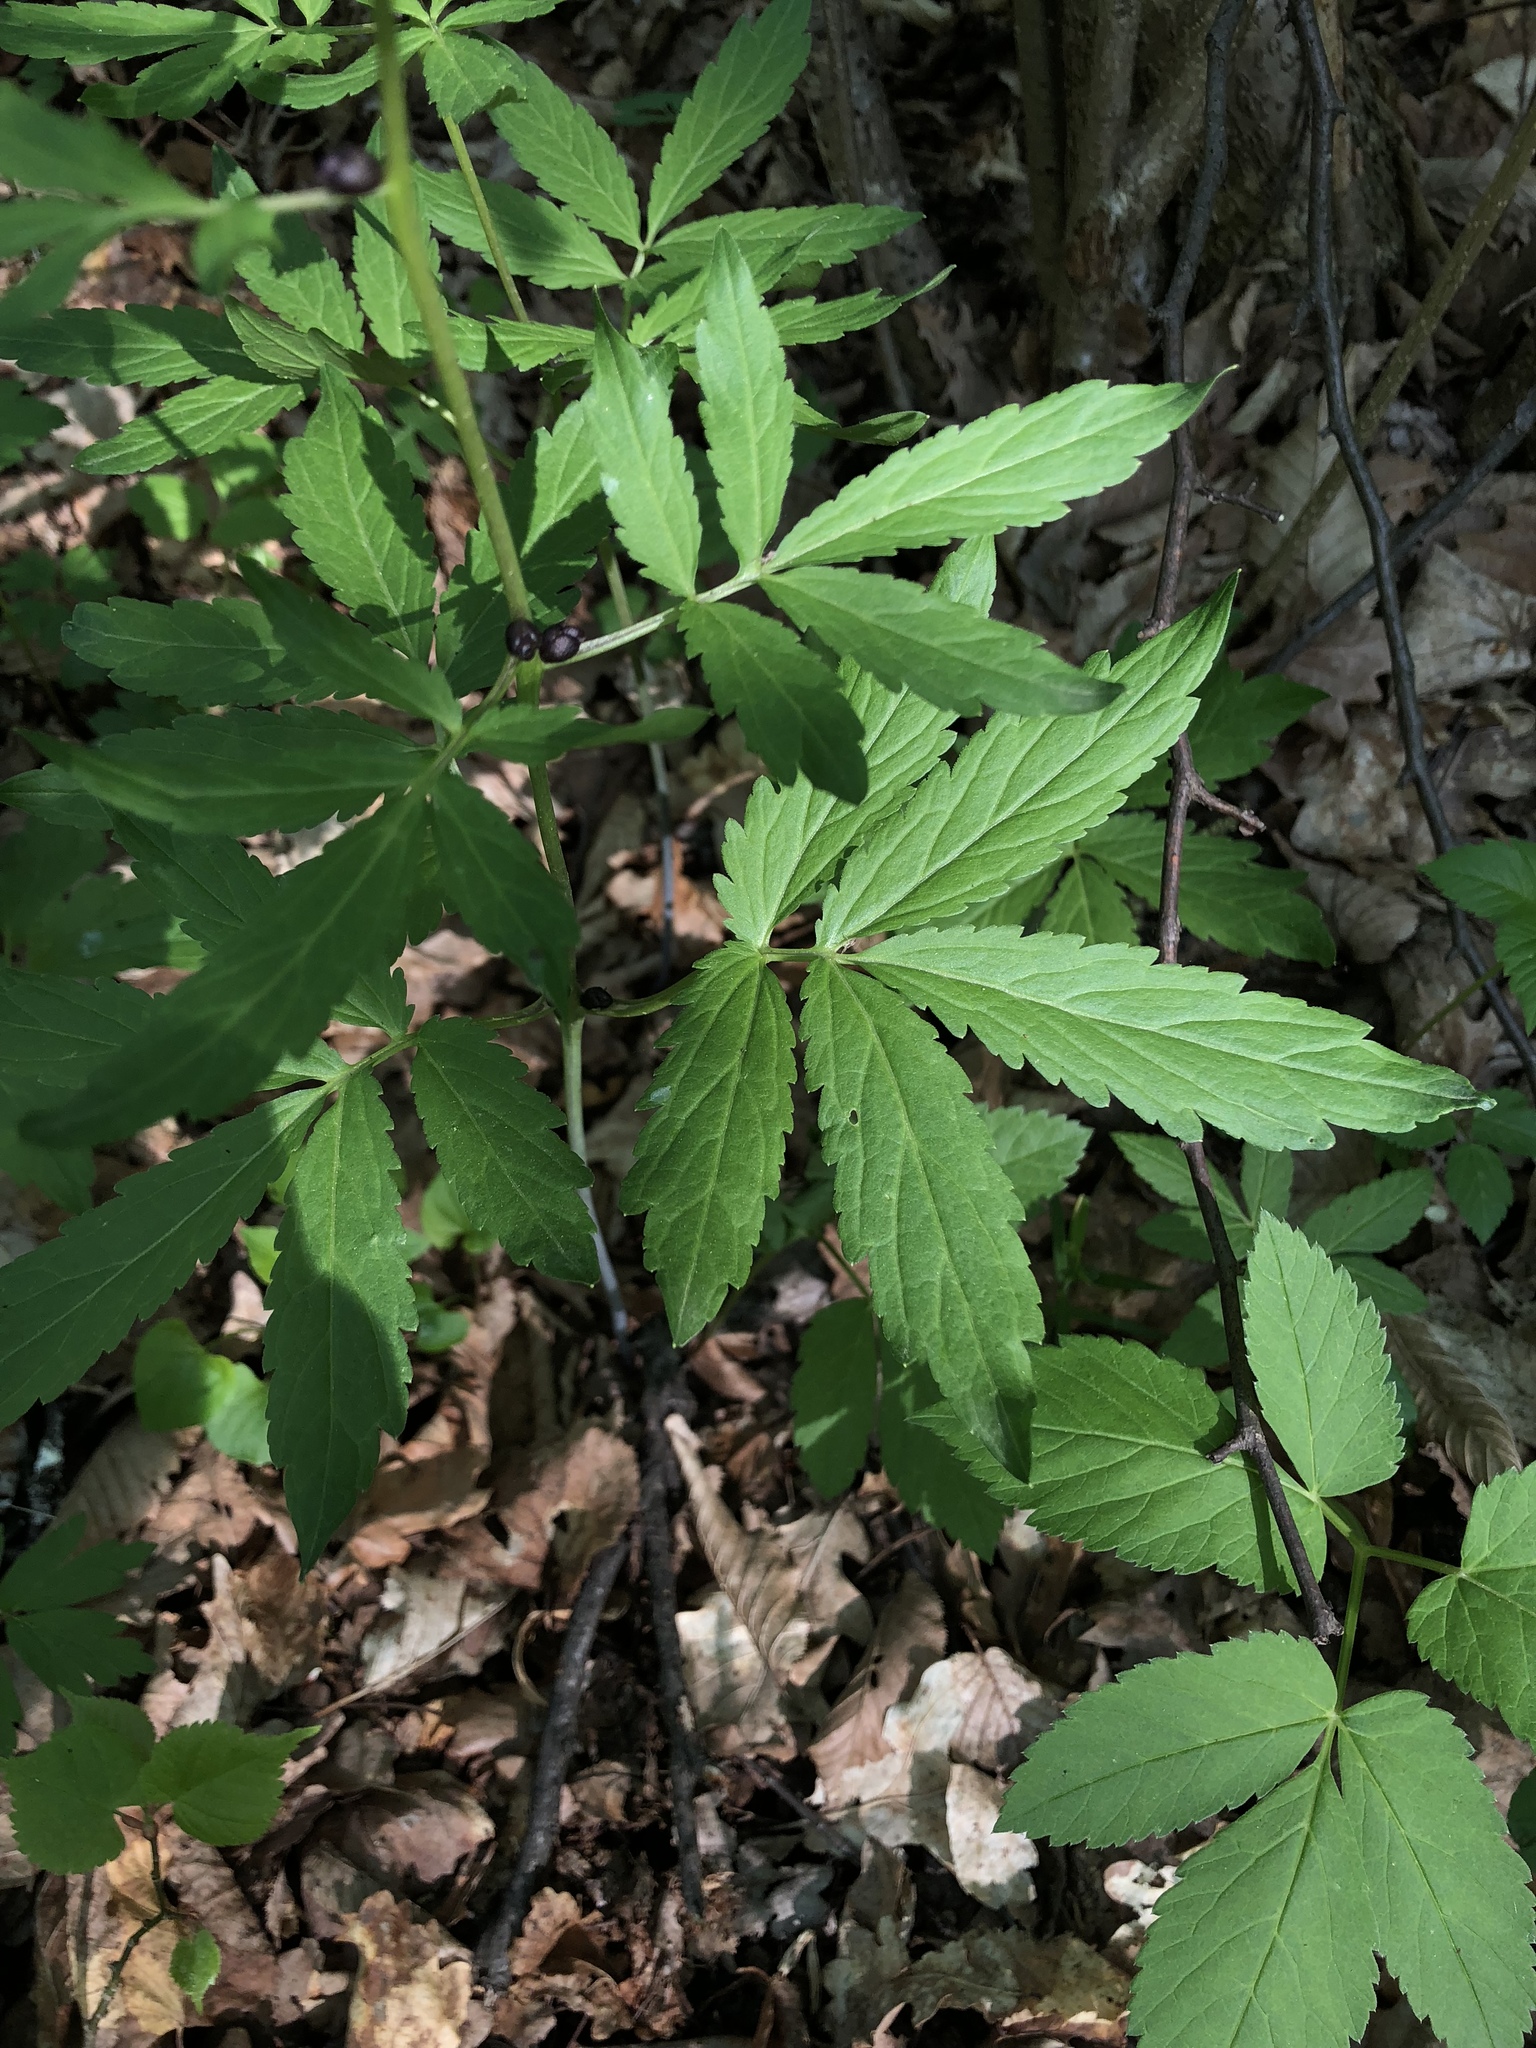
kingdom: Plantae
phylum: Tracheophyta
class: Magnoliopsida
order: Brassicales
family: Brassicaceae
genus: Cardamine
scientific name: Cardamine bulbifera
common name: Coralroot bittercress
